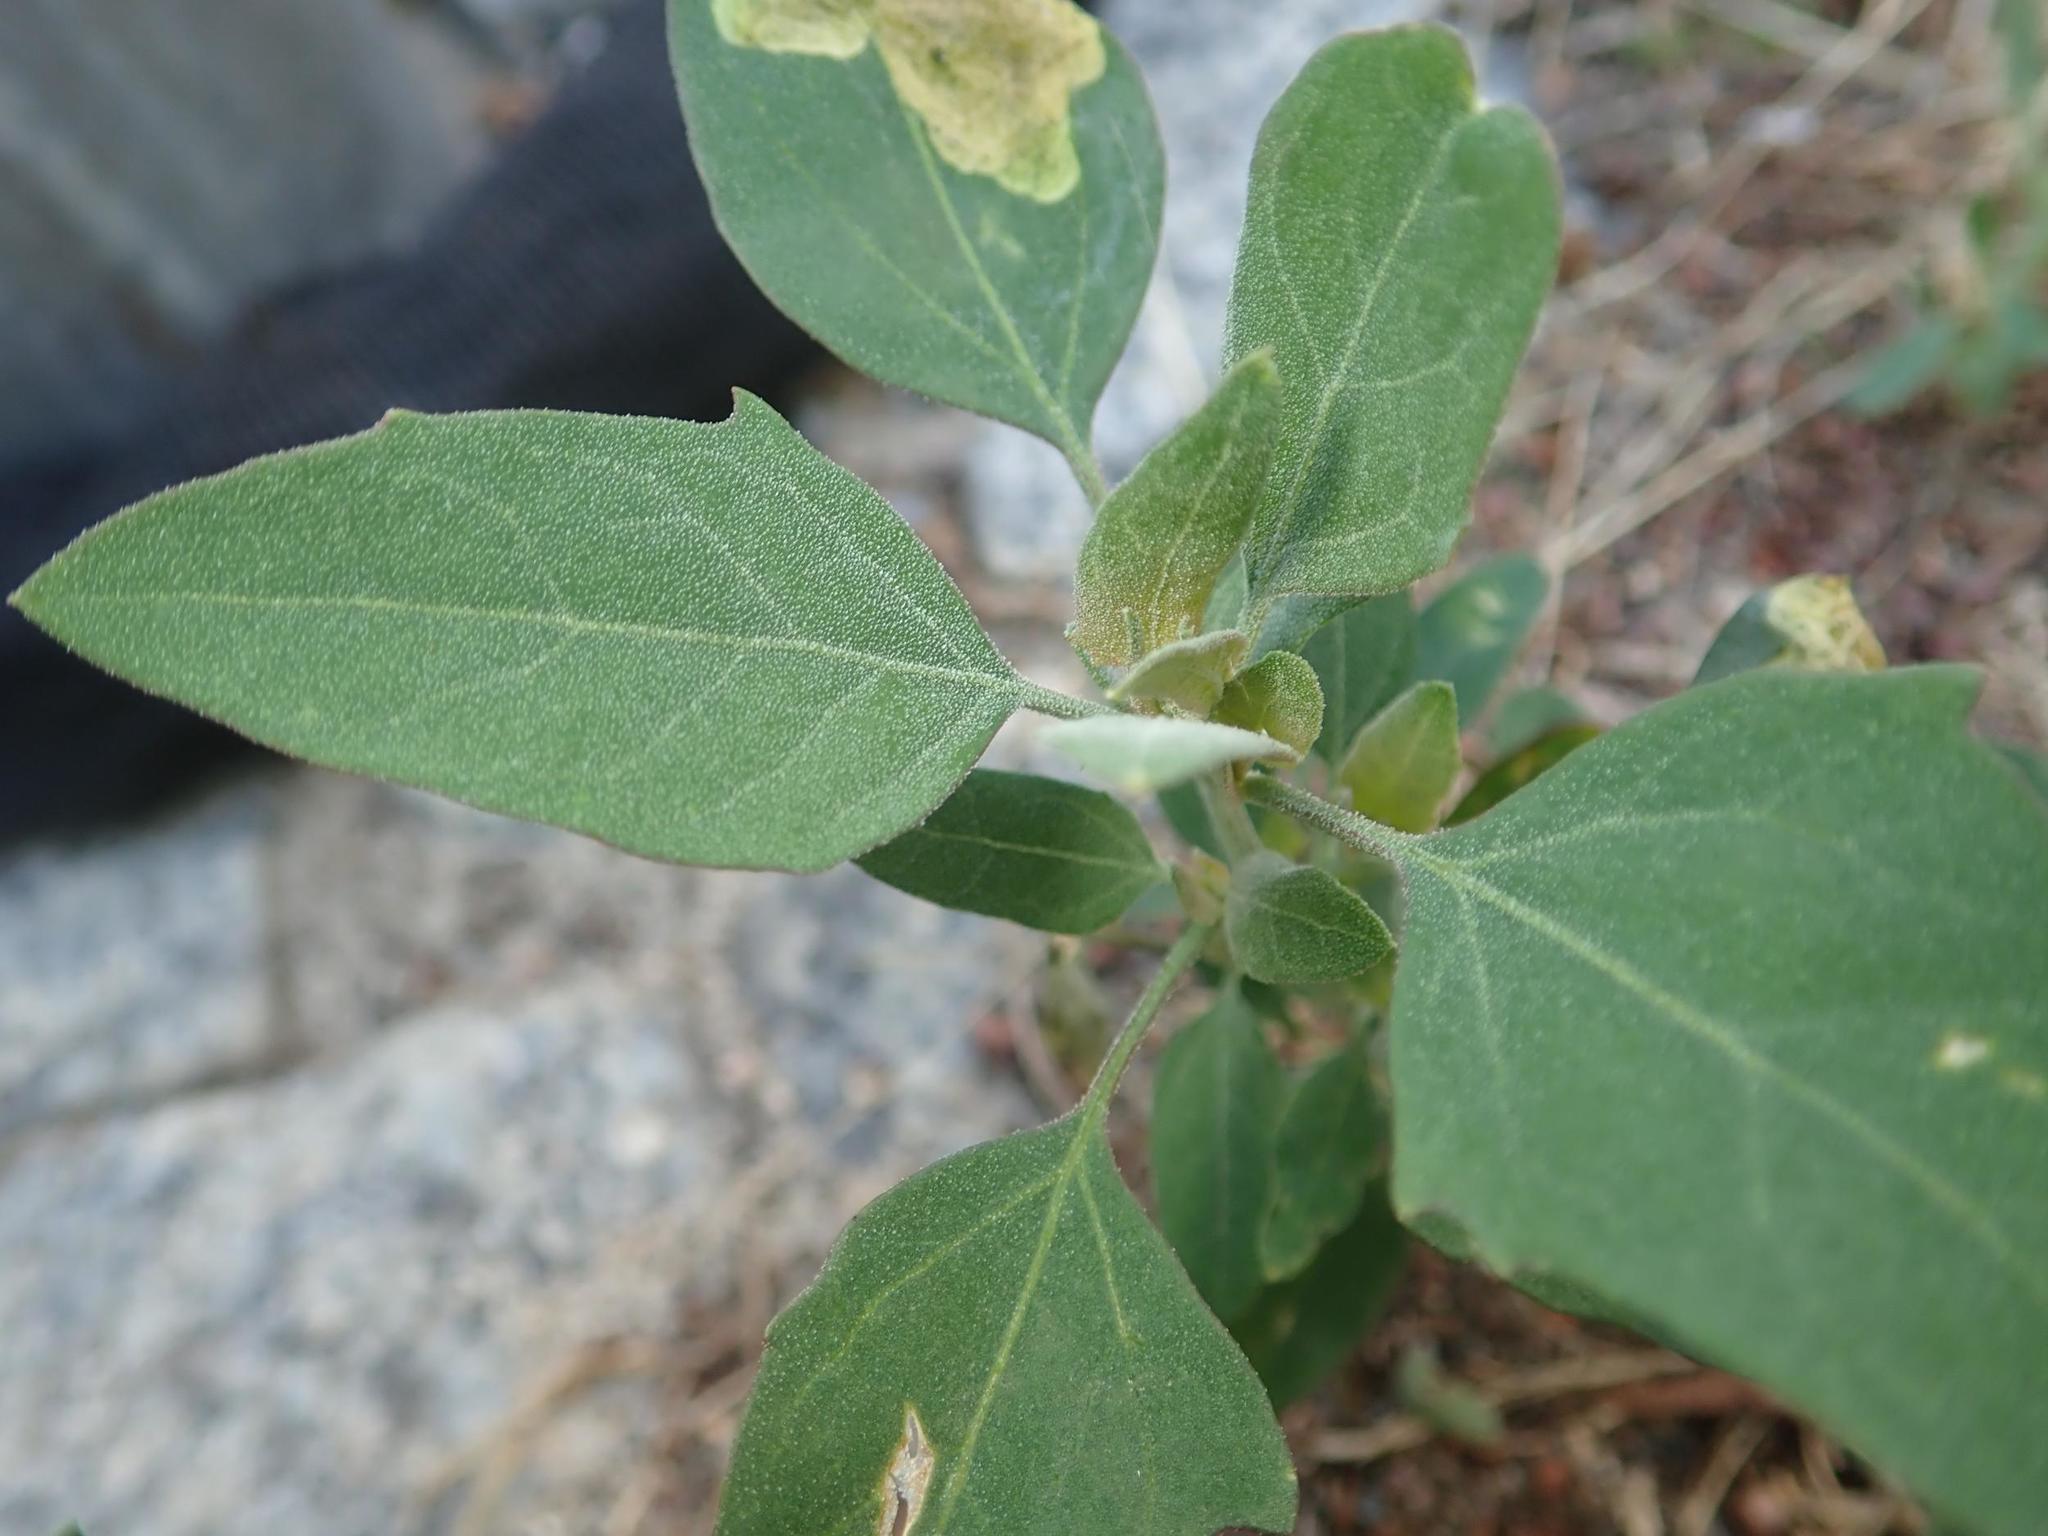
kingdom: Plantae
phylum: Tracheophyta
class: Magnoliopsida
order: Caryophyllales
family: Amaranthaceae
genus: Chenopodium
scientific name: Chenopodium album
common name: Fat-hen
